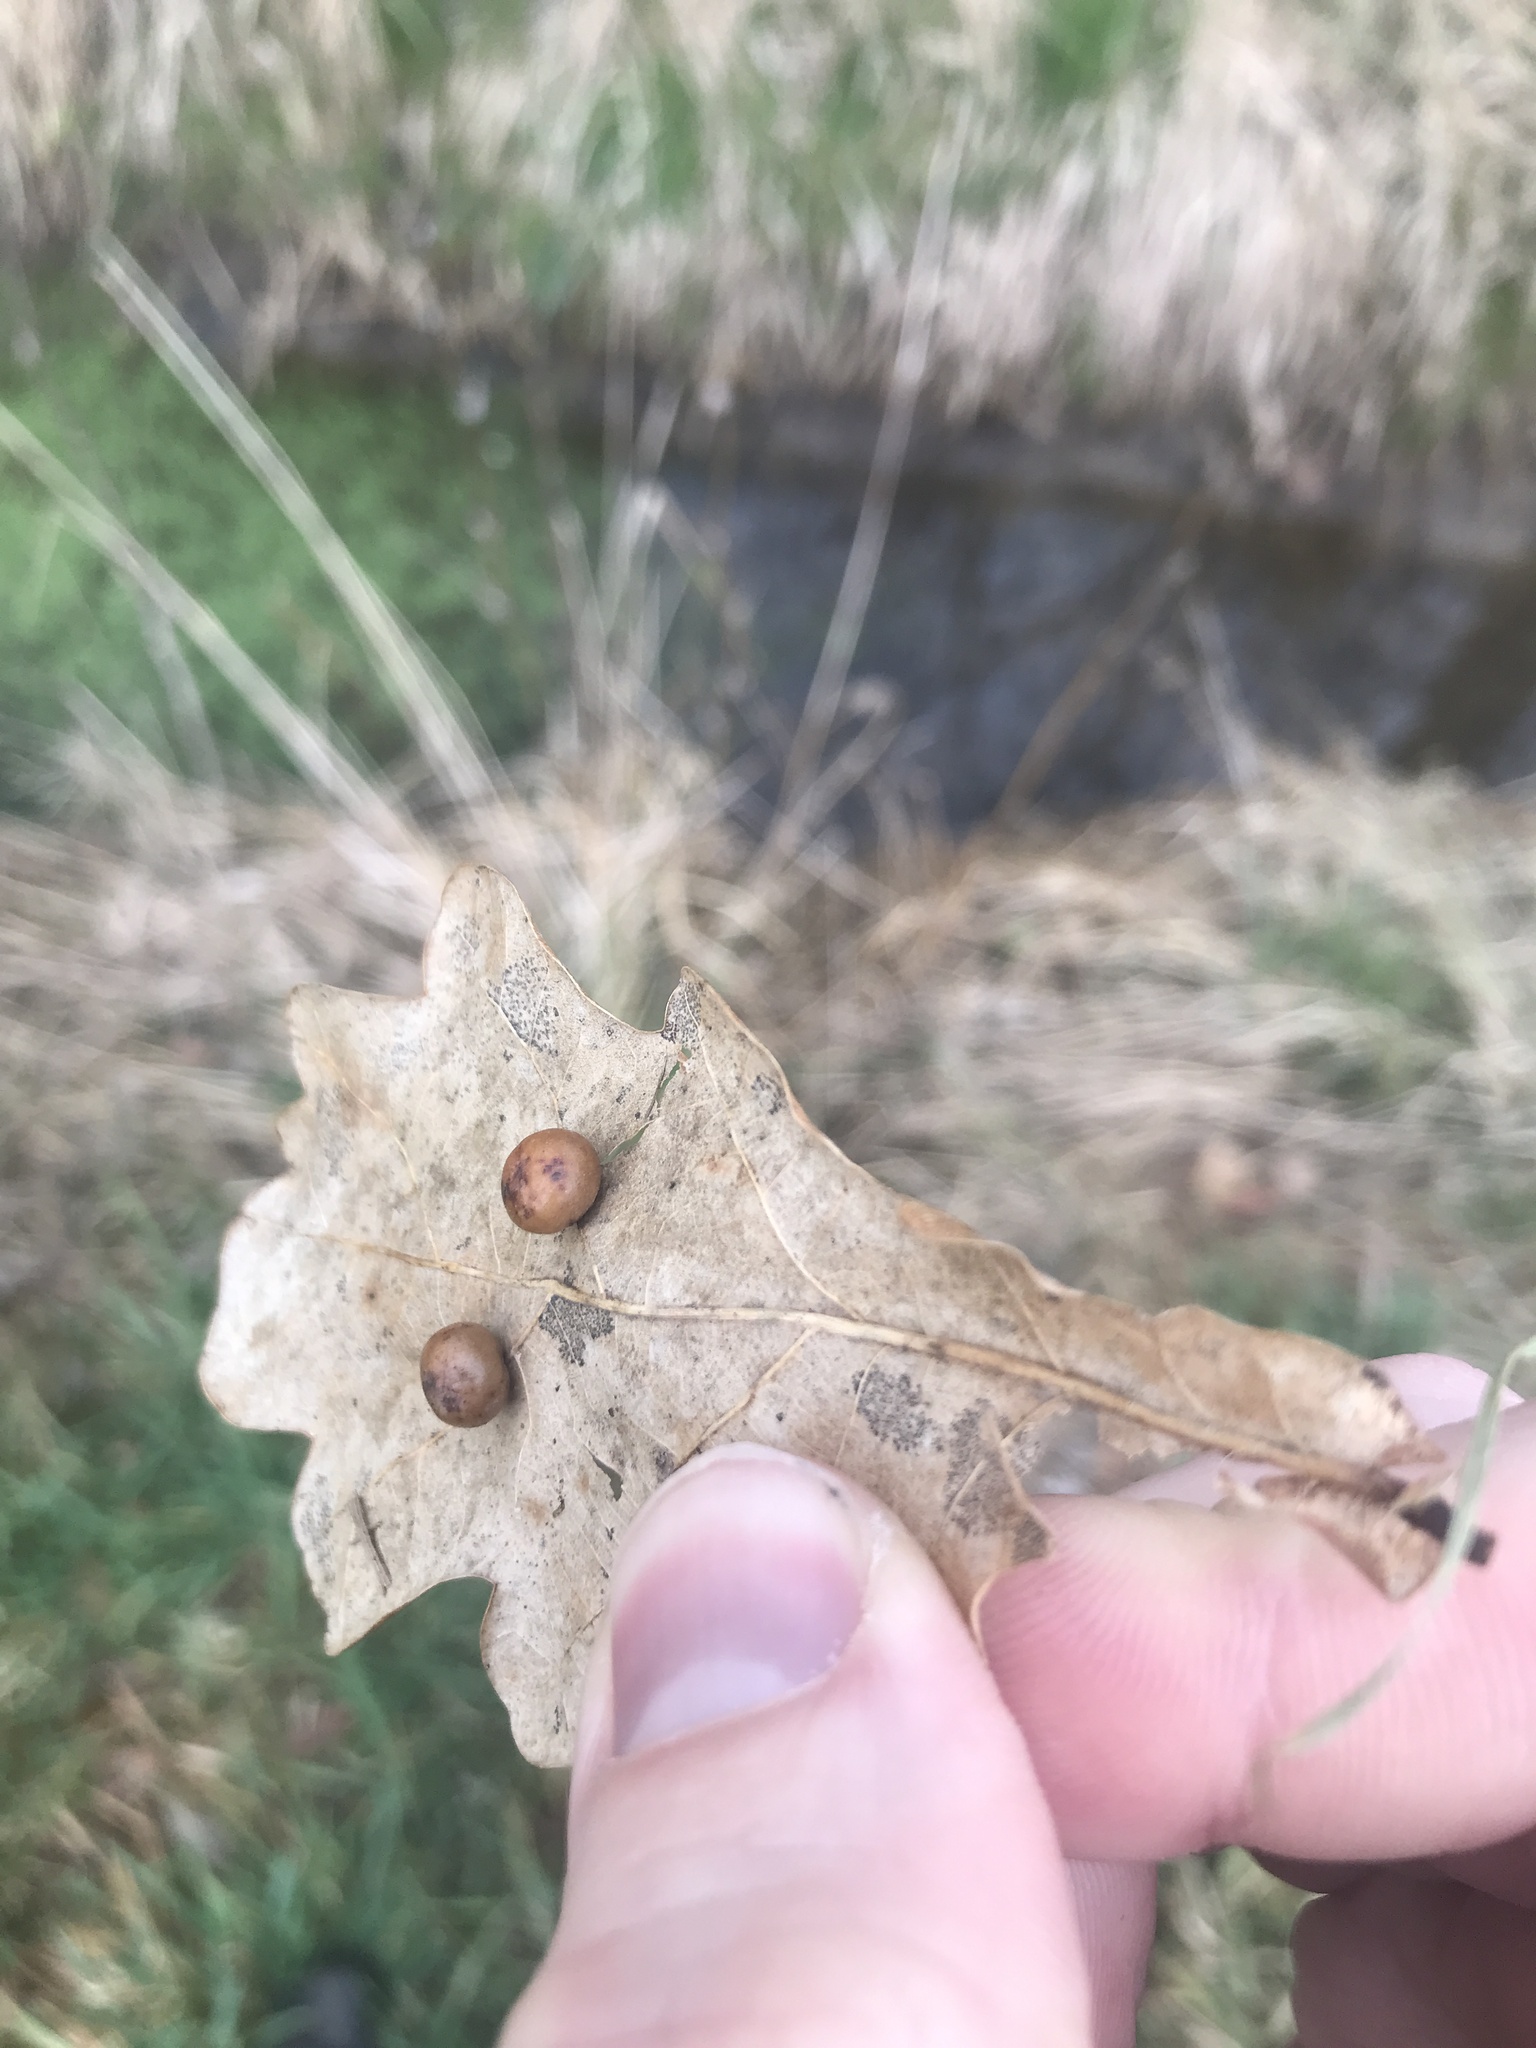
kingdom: Animalia
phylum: Arthropoda
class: Insecta
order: Hymenoptera
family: Cynipidae
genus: Cynips
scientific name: Cynips divisa
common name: Red currant gall
